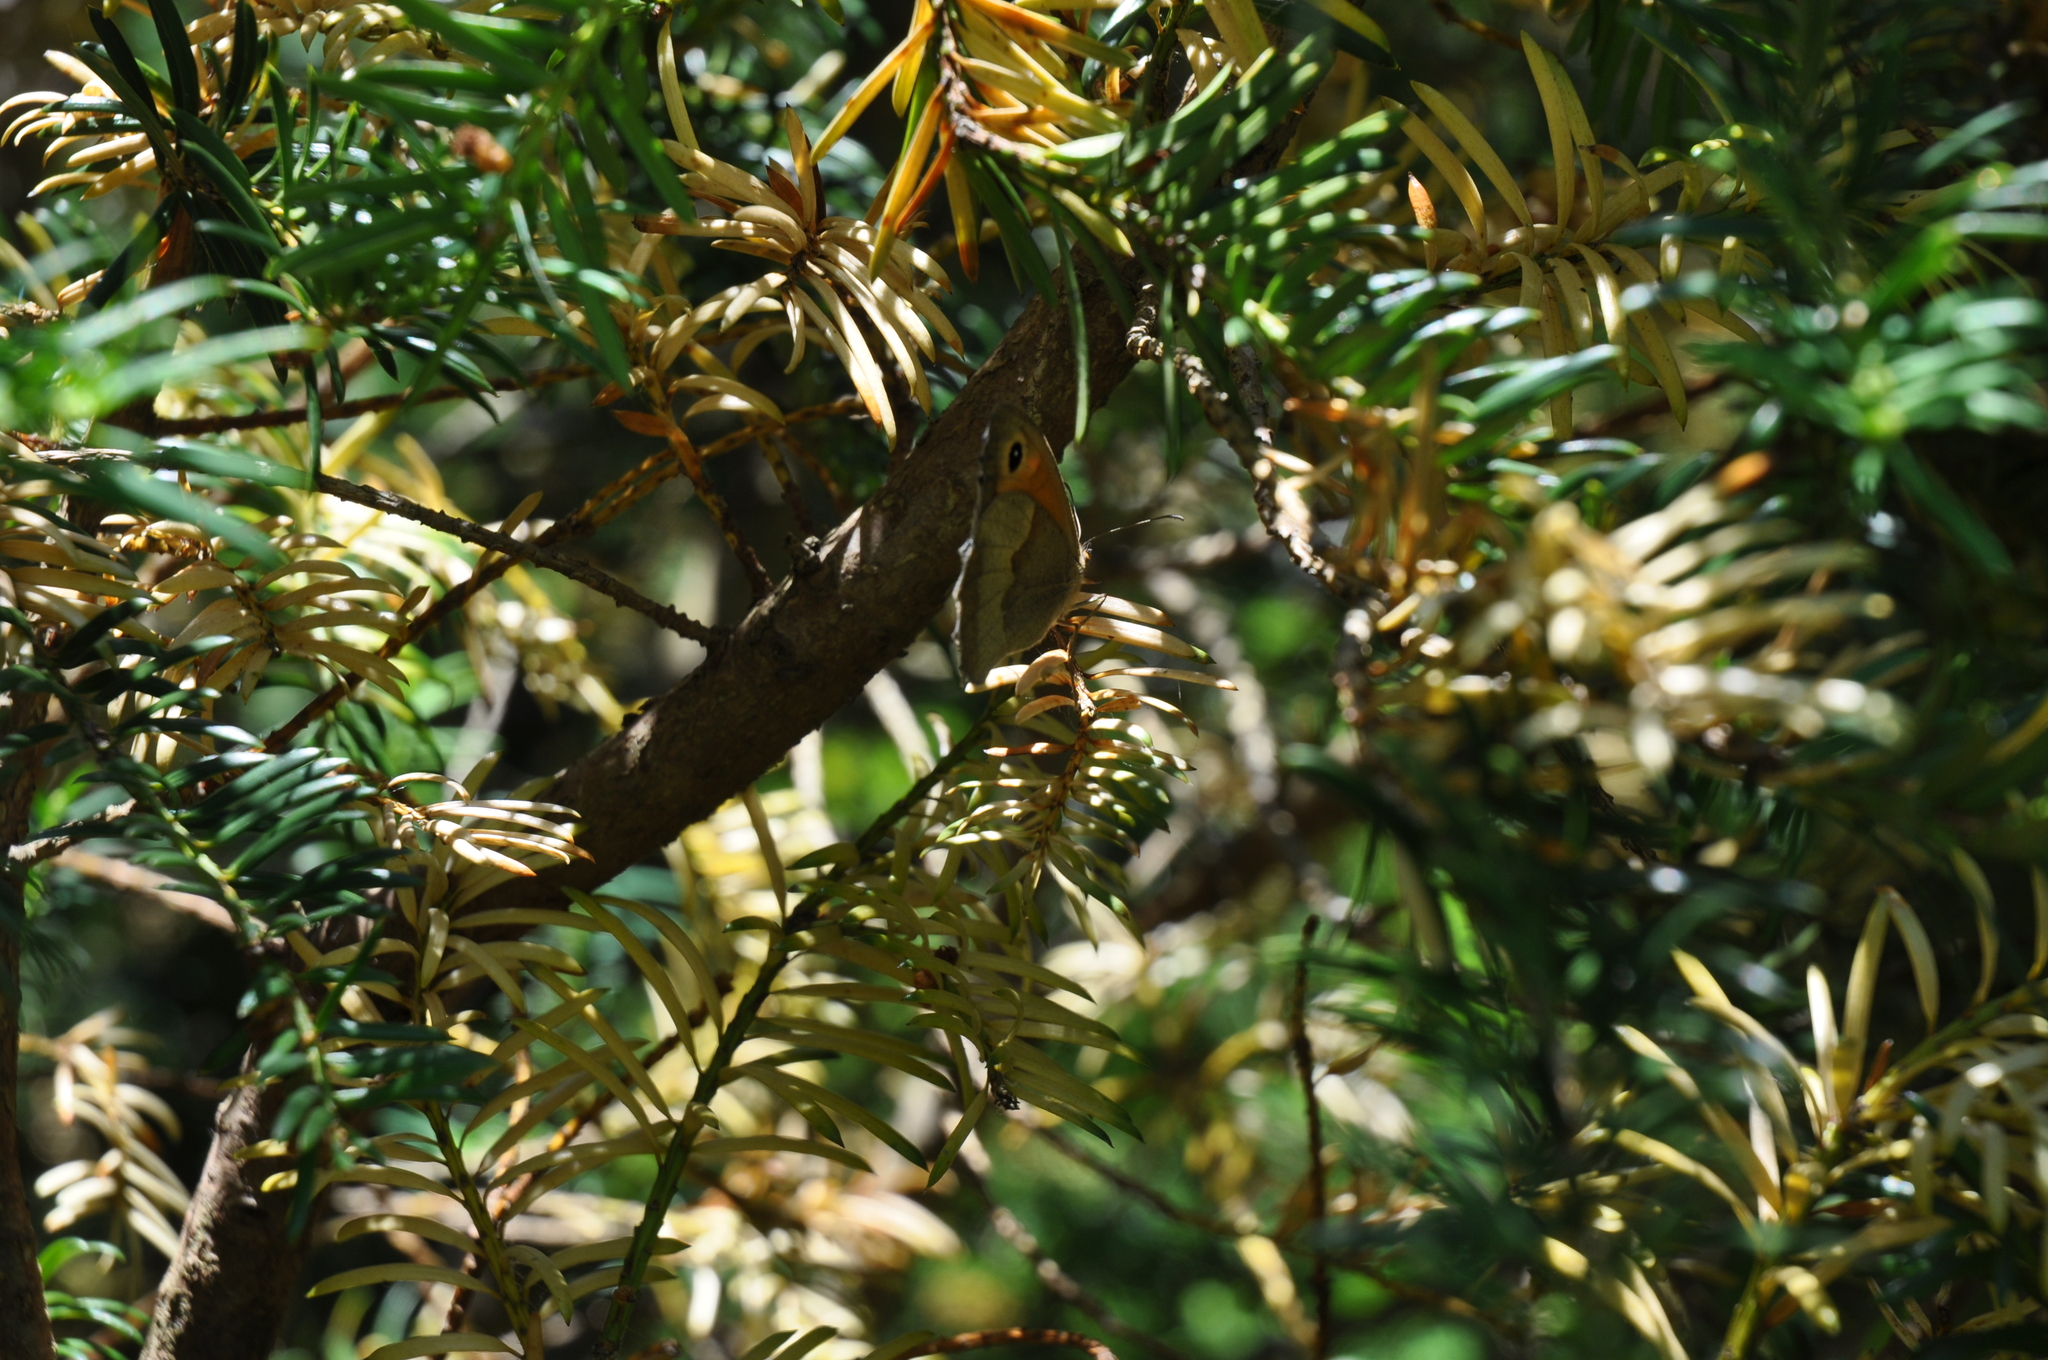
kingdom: Animalia
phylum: Arthropoda
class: Insecta
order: Lepidoptera
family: Nymphalidae
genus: Maniola
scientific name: Maniola jurtina
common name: Meadow brown
